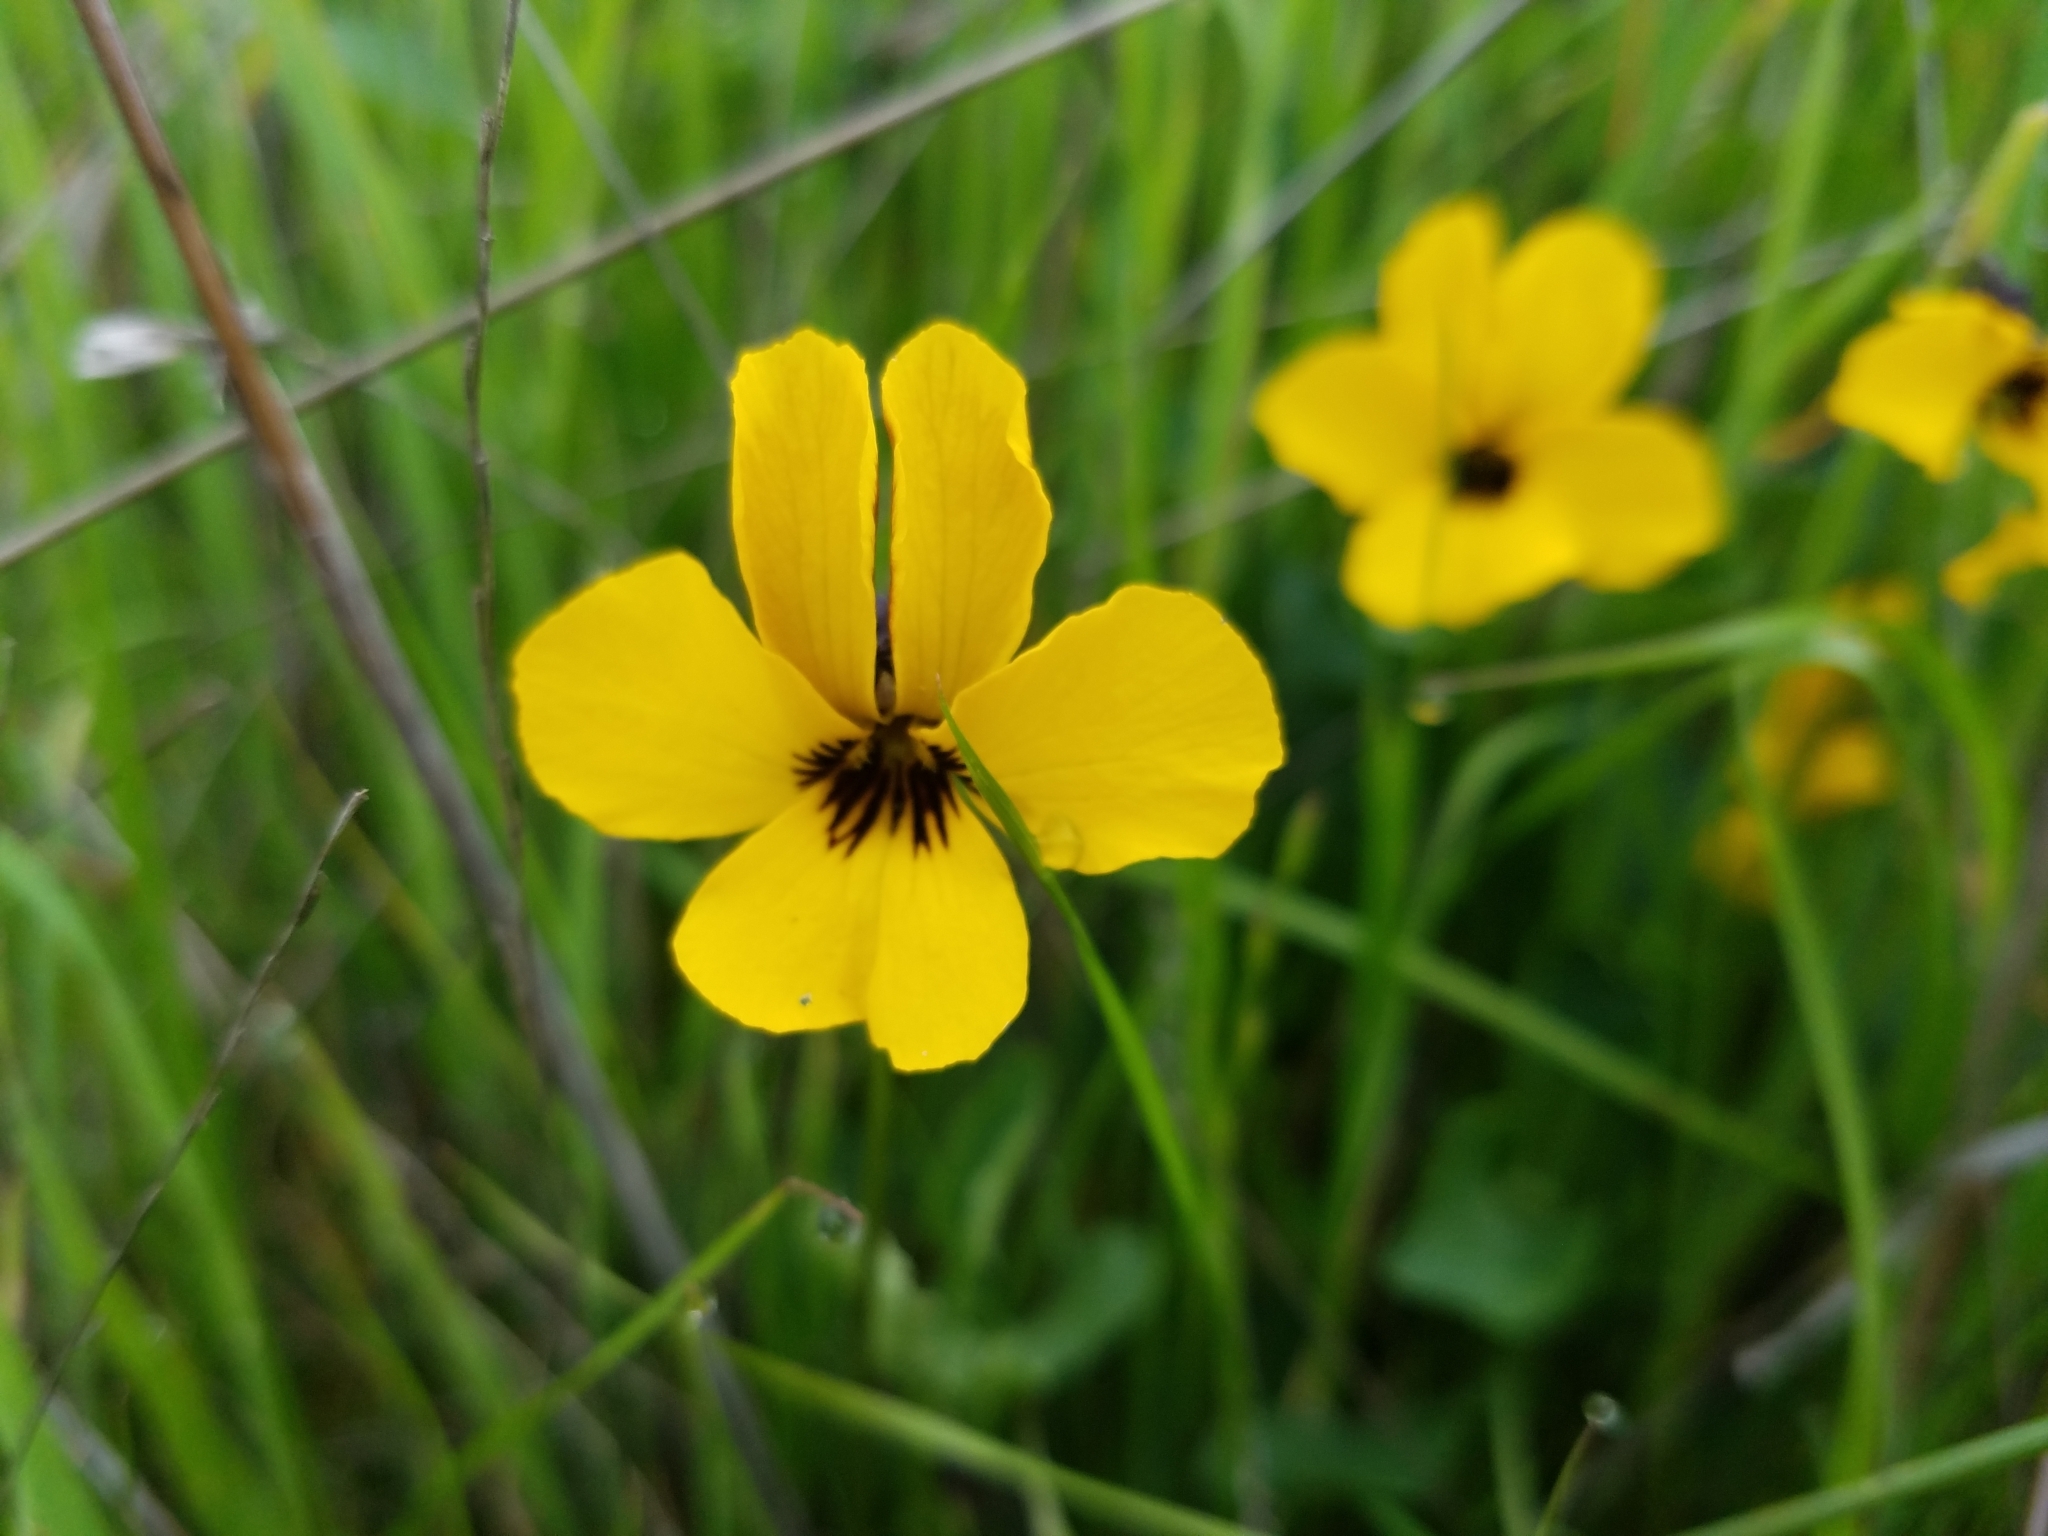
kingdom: Plantae
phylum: Tracheophyta
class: Magnoliopsida
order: Malpighiales
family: Violaceae
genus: Viola
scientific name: Viola pedunculata
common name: California golden violet
